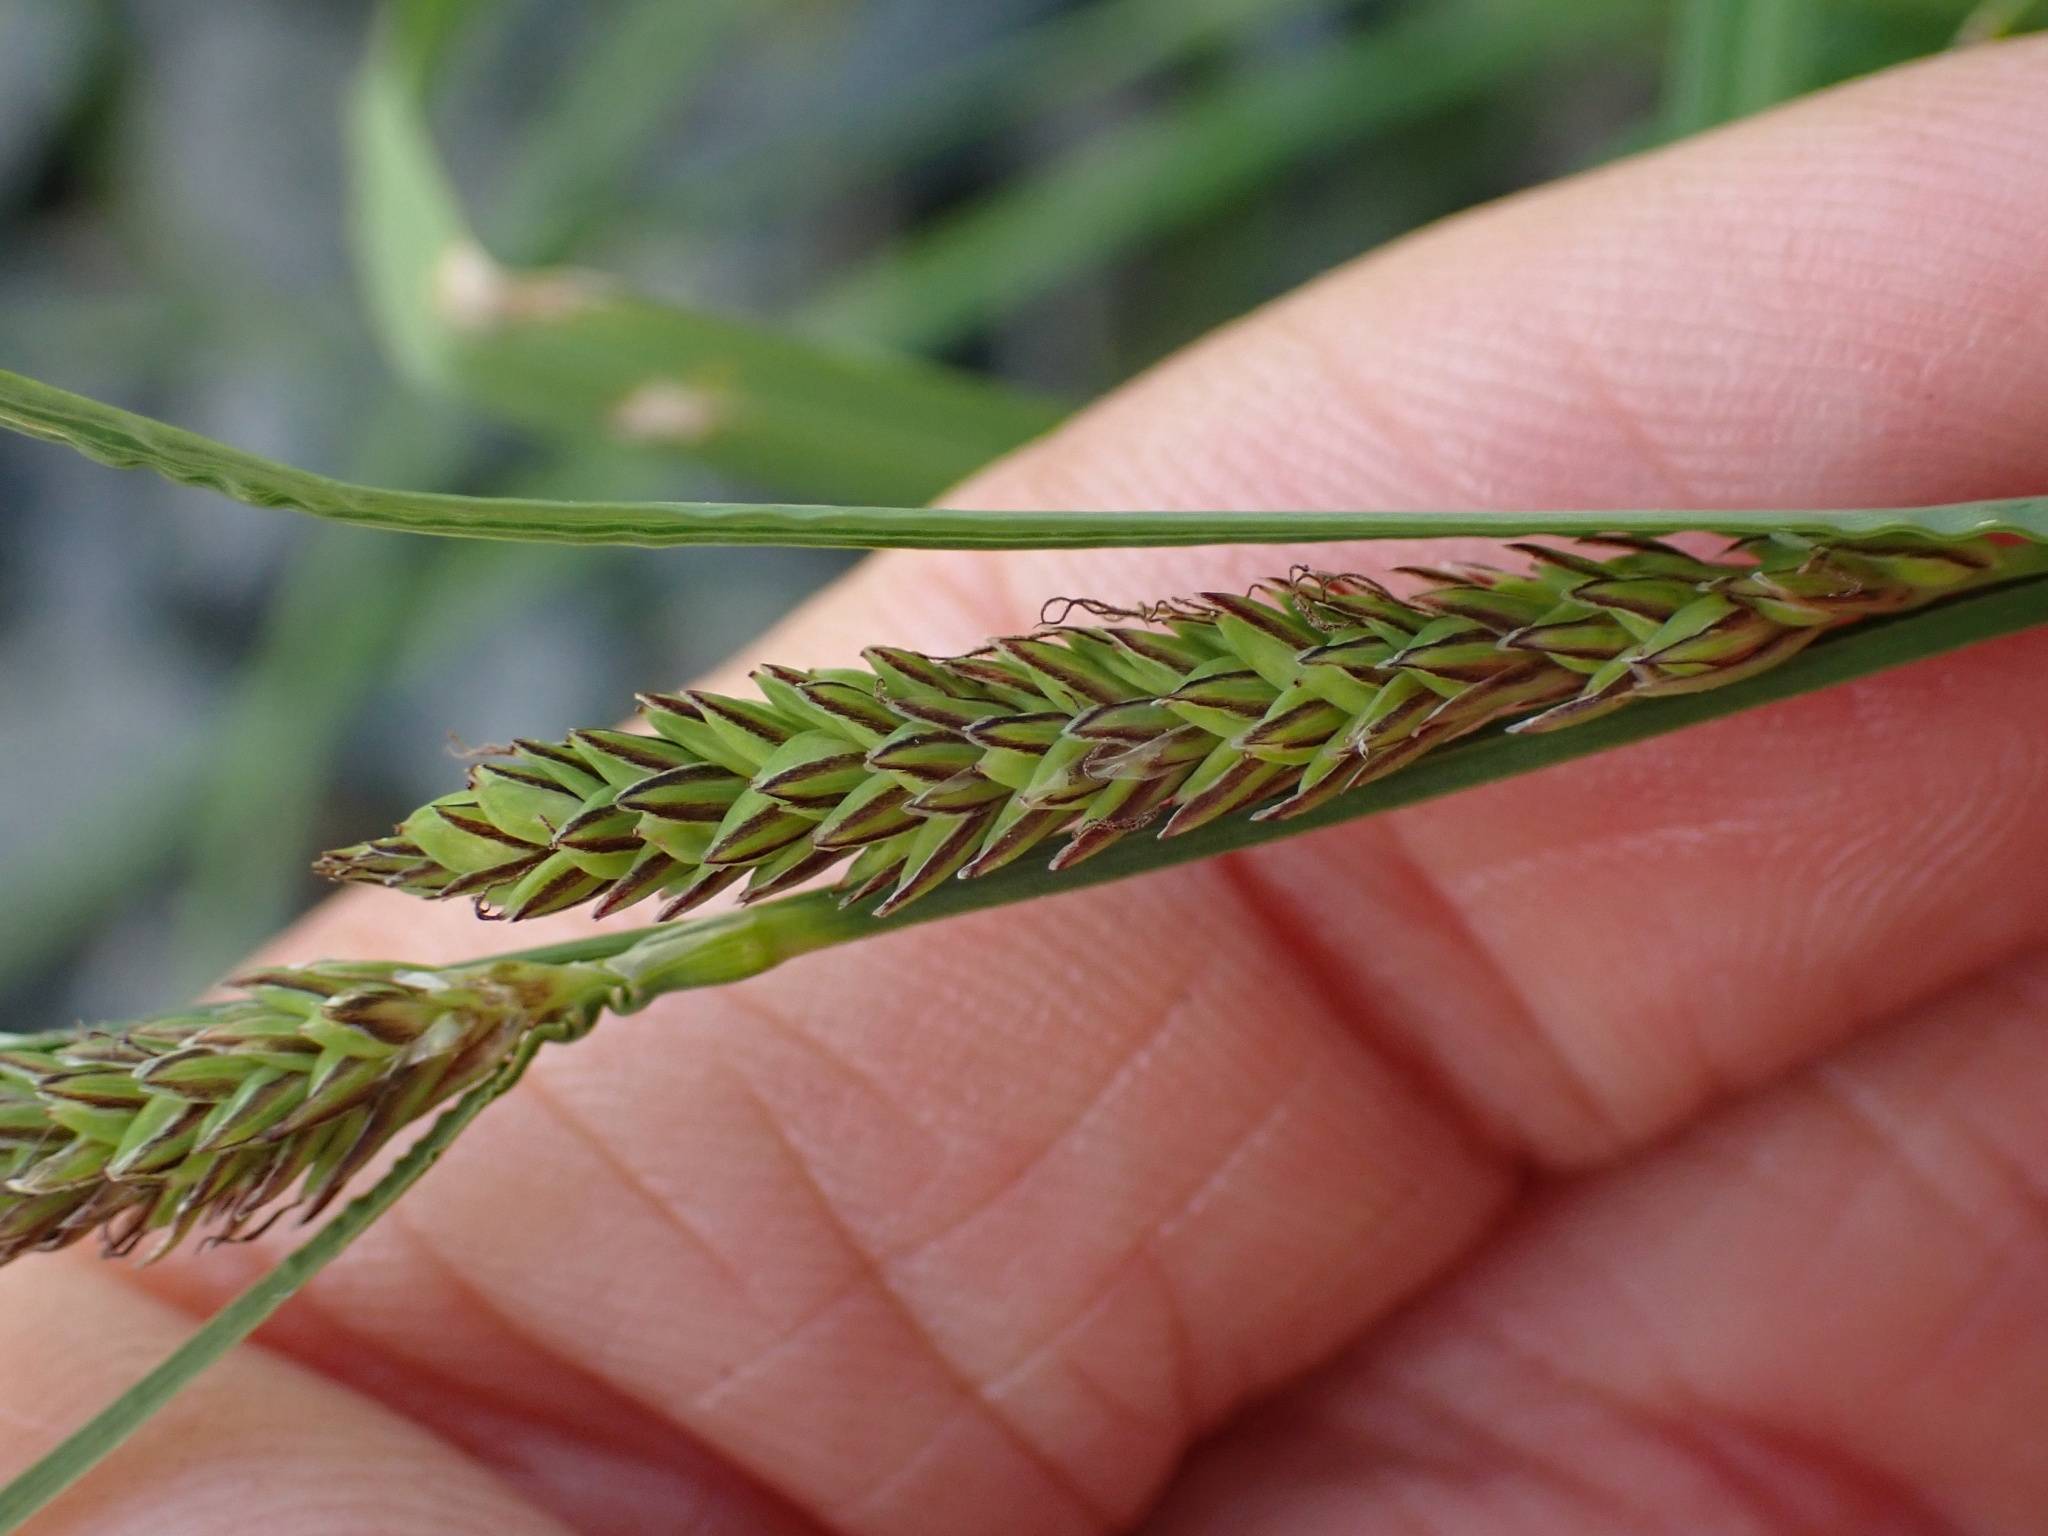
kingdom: Plantae
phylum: Tracheophyta
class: Liliopsida
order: Poales
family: Cyperaceae
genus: Carex
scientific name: Carex kelloggii
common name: Kellogg's sedge
